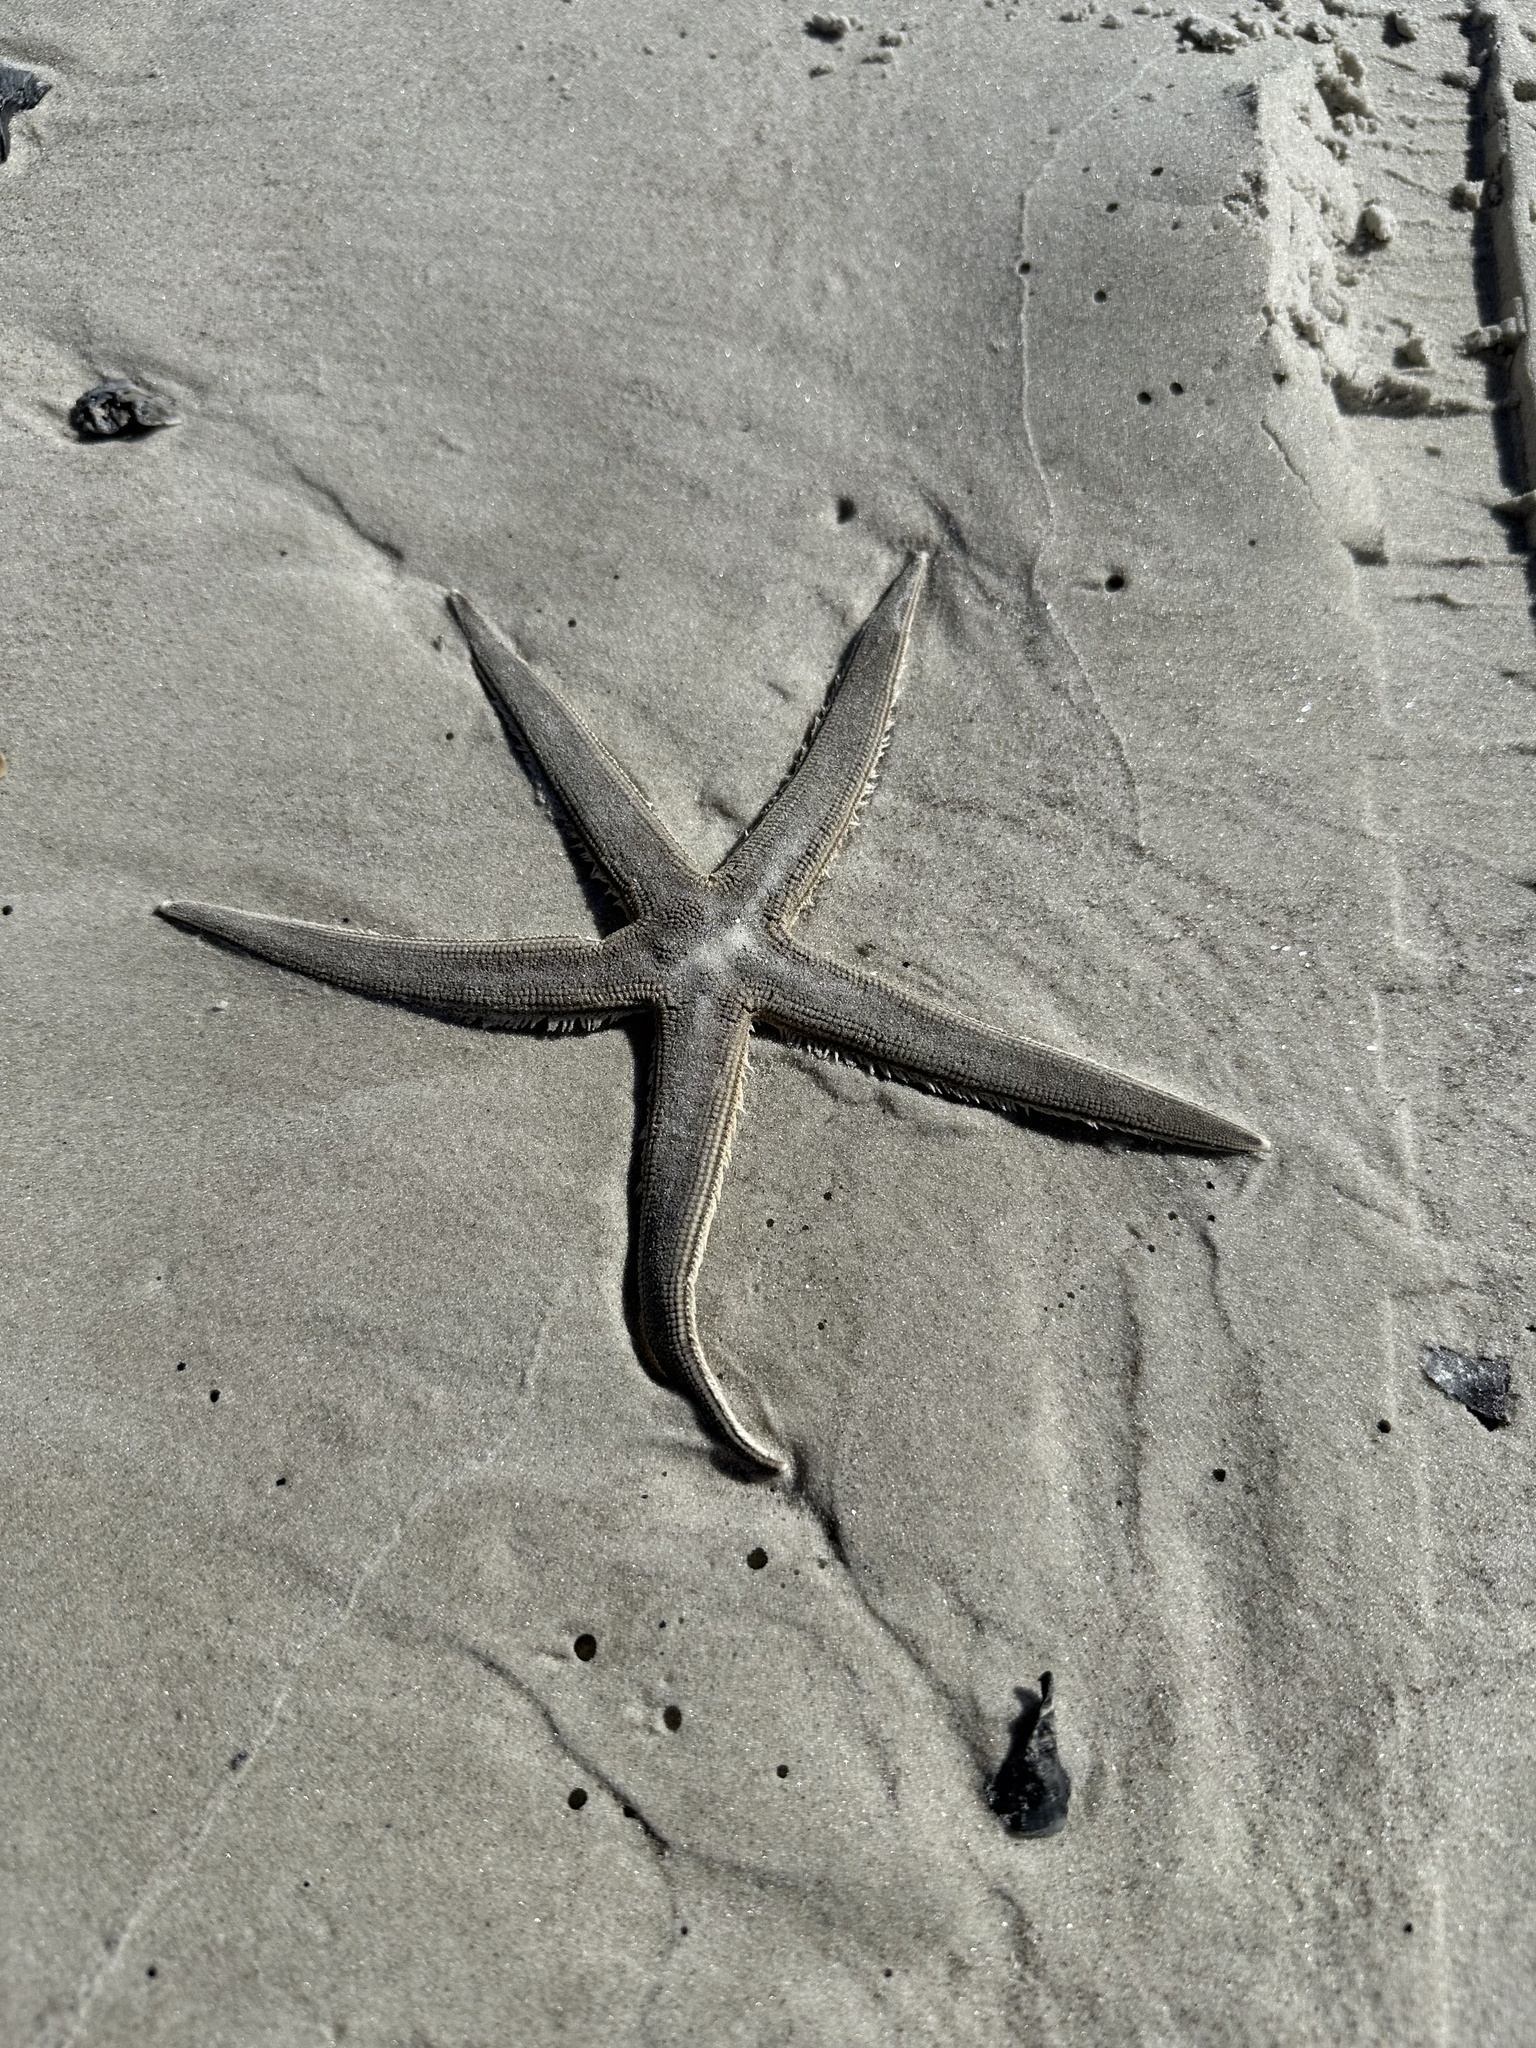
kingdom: Animalia
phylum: Echinodermata
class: Asteroidea
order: Paxillosida
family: Luidiidae
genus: Luidia
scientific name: Luidia clathrata
